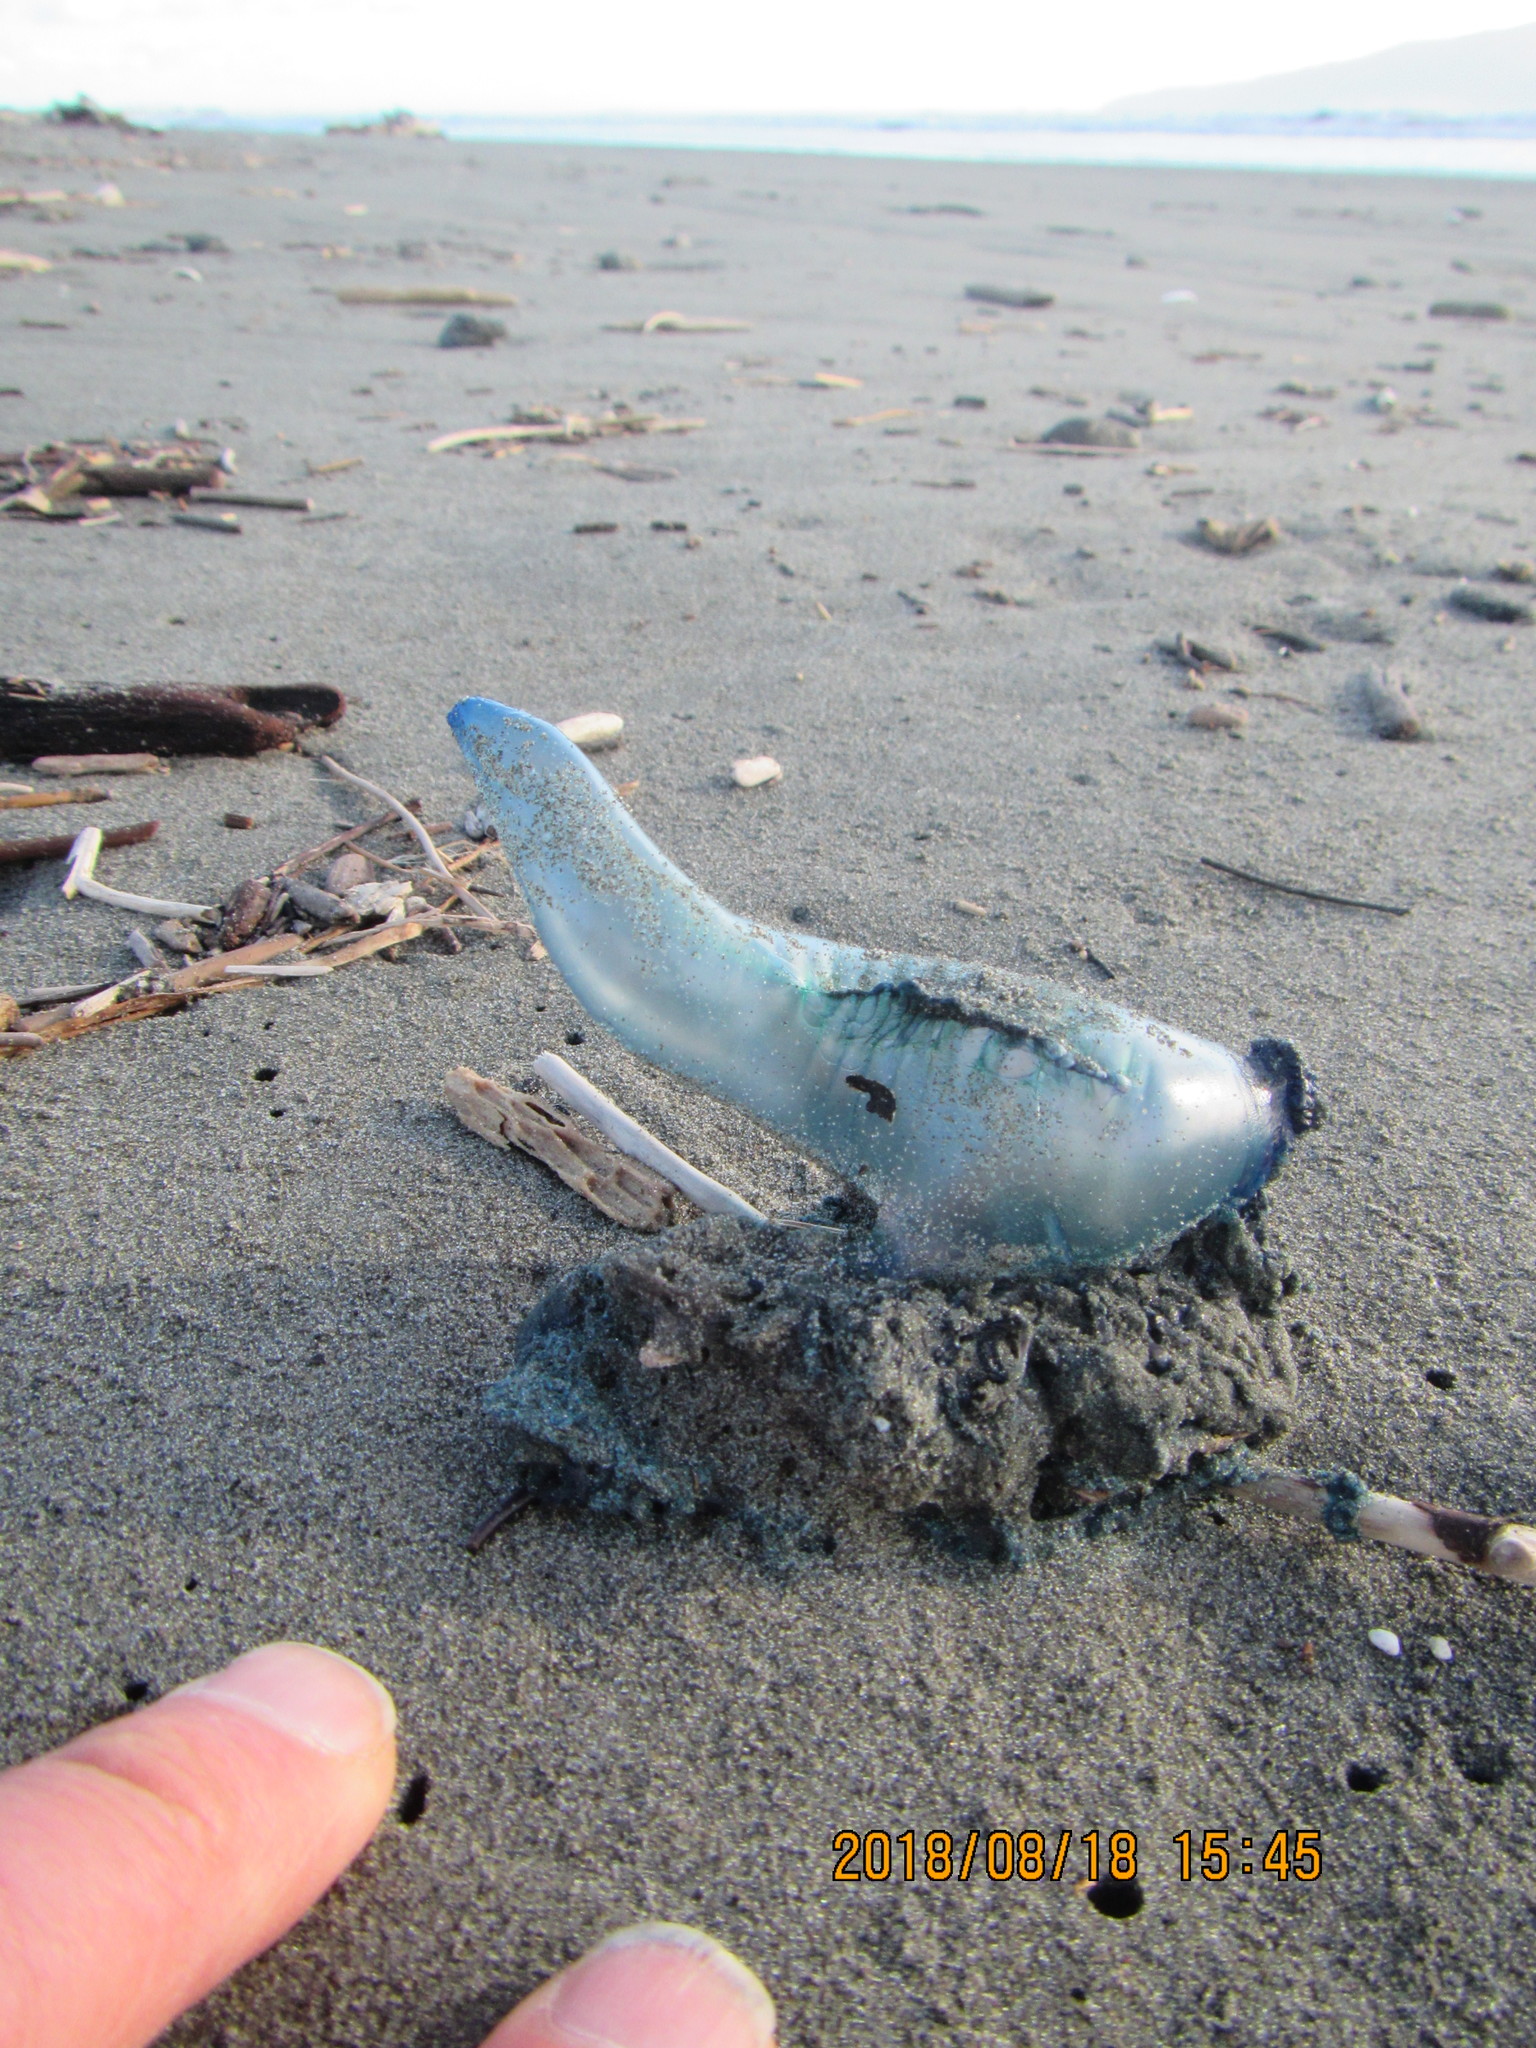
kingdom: Animalia
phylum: Cnidaria
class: Hydrozoa
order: Siphonophorae
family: Physaliidae
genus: Physalia
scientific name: Physalia physalis
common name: Portuguese man-of-war
